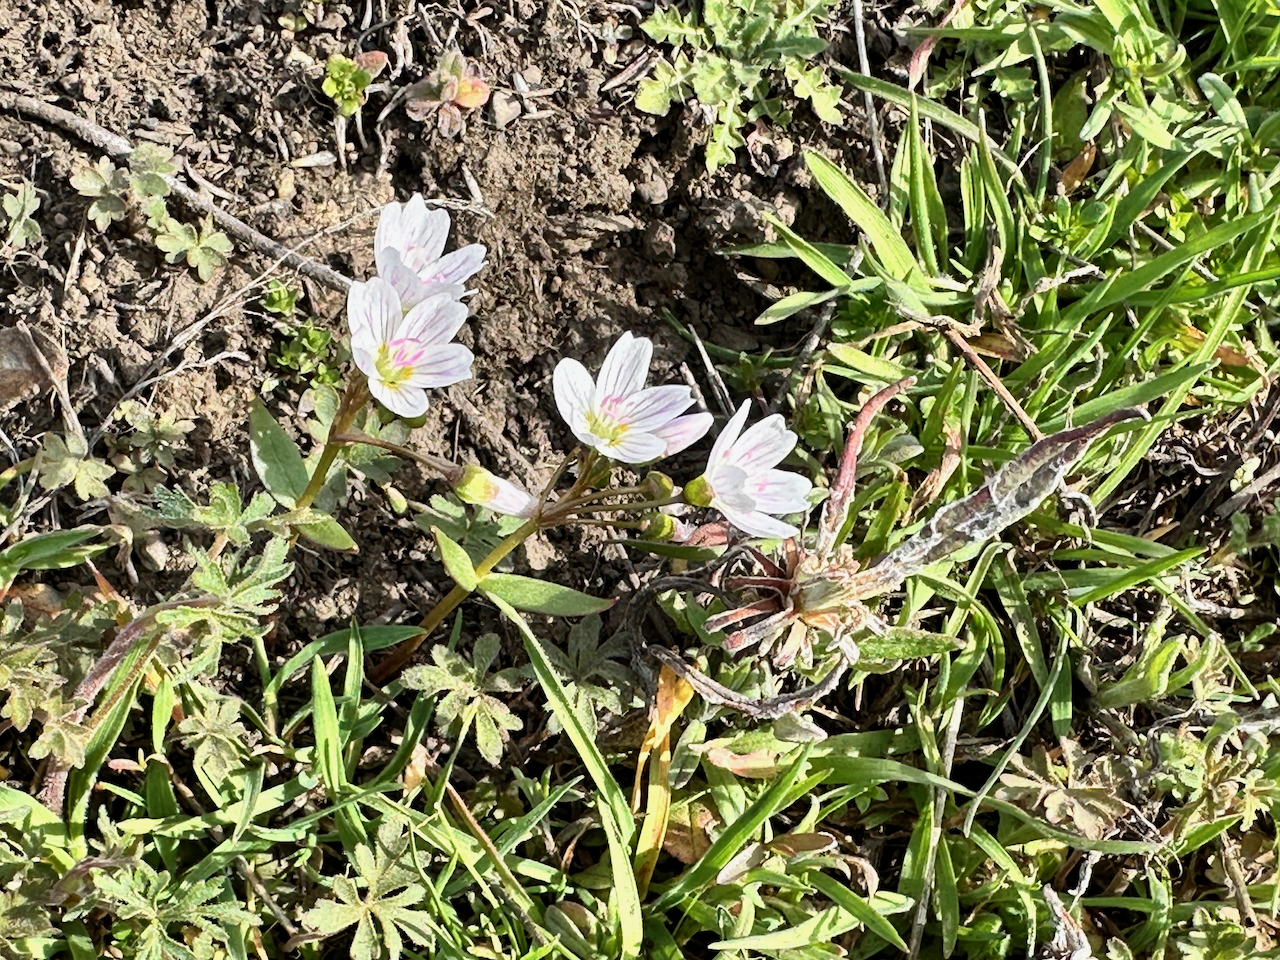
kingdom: Plantae
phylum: Tracheophyta
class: Magnoliopsida
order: Caryophyllales
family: Montiaceae
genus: Claytonia
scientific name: Claytonia lanceolata
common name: Western spring-beauty
